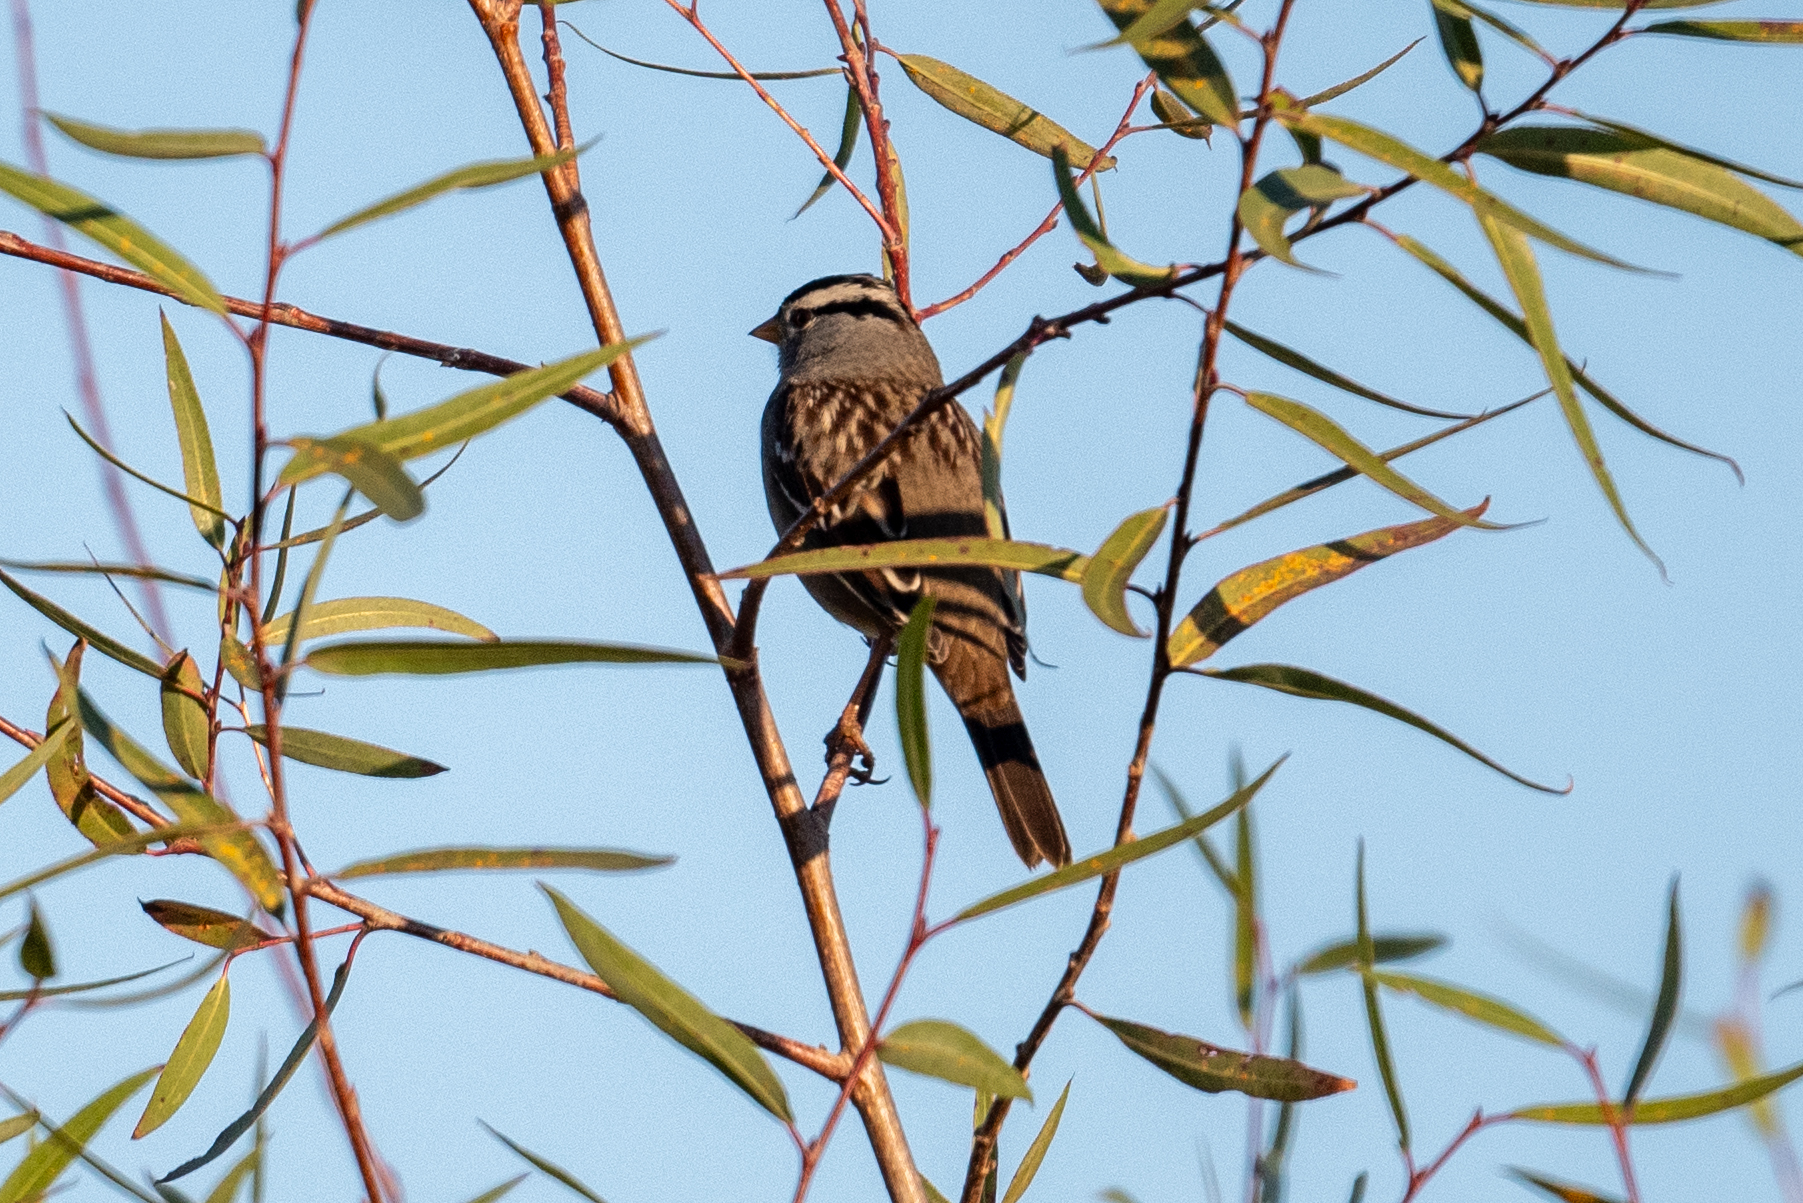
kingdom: Animalia
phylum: Chordata
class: Aves
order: Passeriformes
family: Passerellidae
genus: Zonotrichia
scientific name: Zonotrichia leucophrys
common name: White-crowned sparrow
